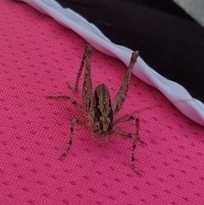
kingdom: Animalia
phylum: Arthropoda
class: Insecta
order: Orthoptera
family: Tettigoniidae
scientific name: Tettigoniidae
